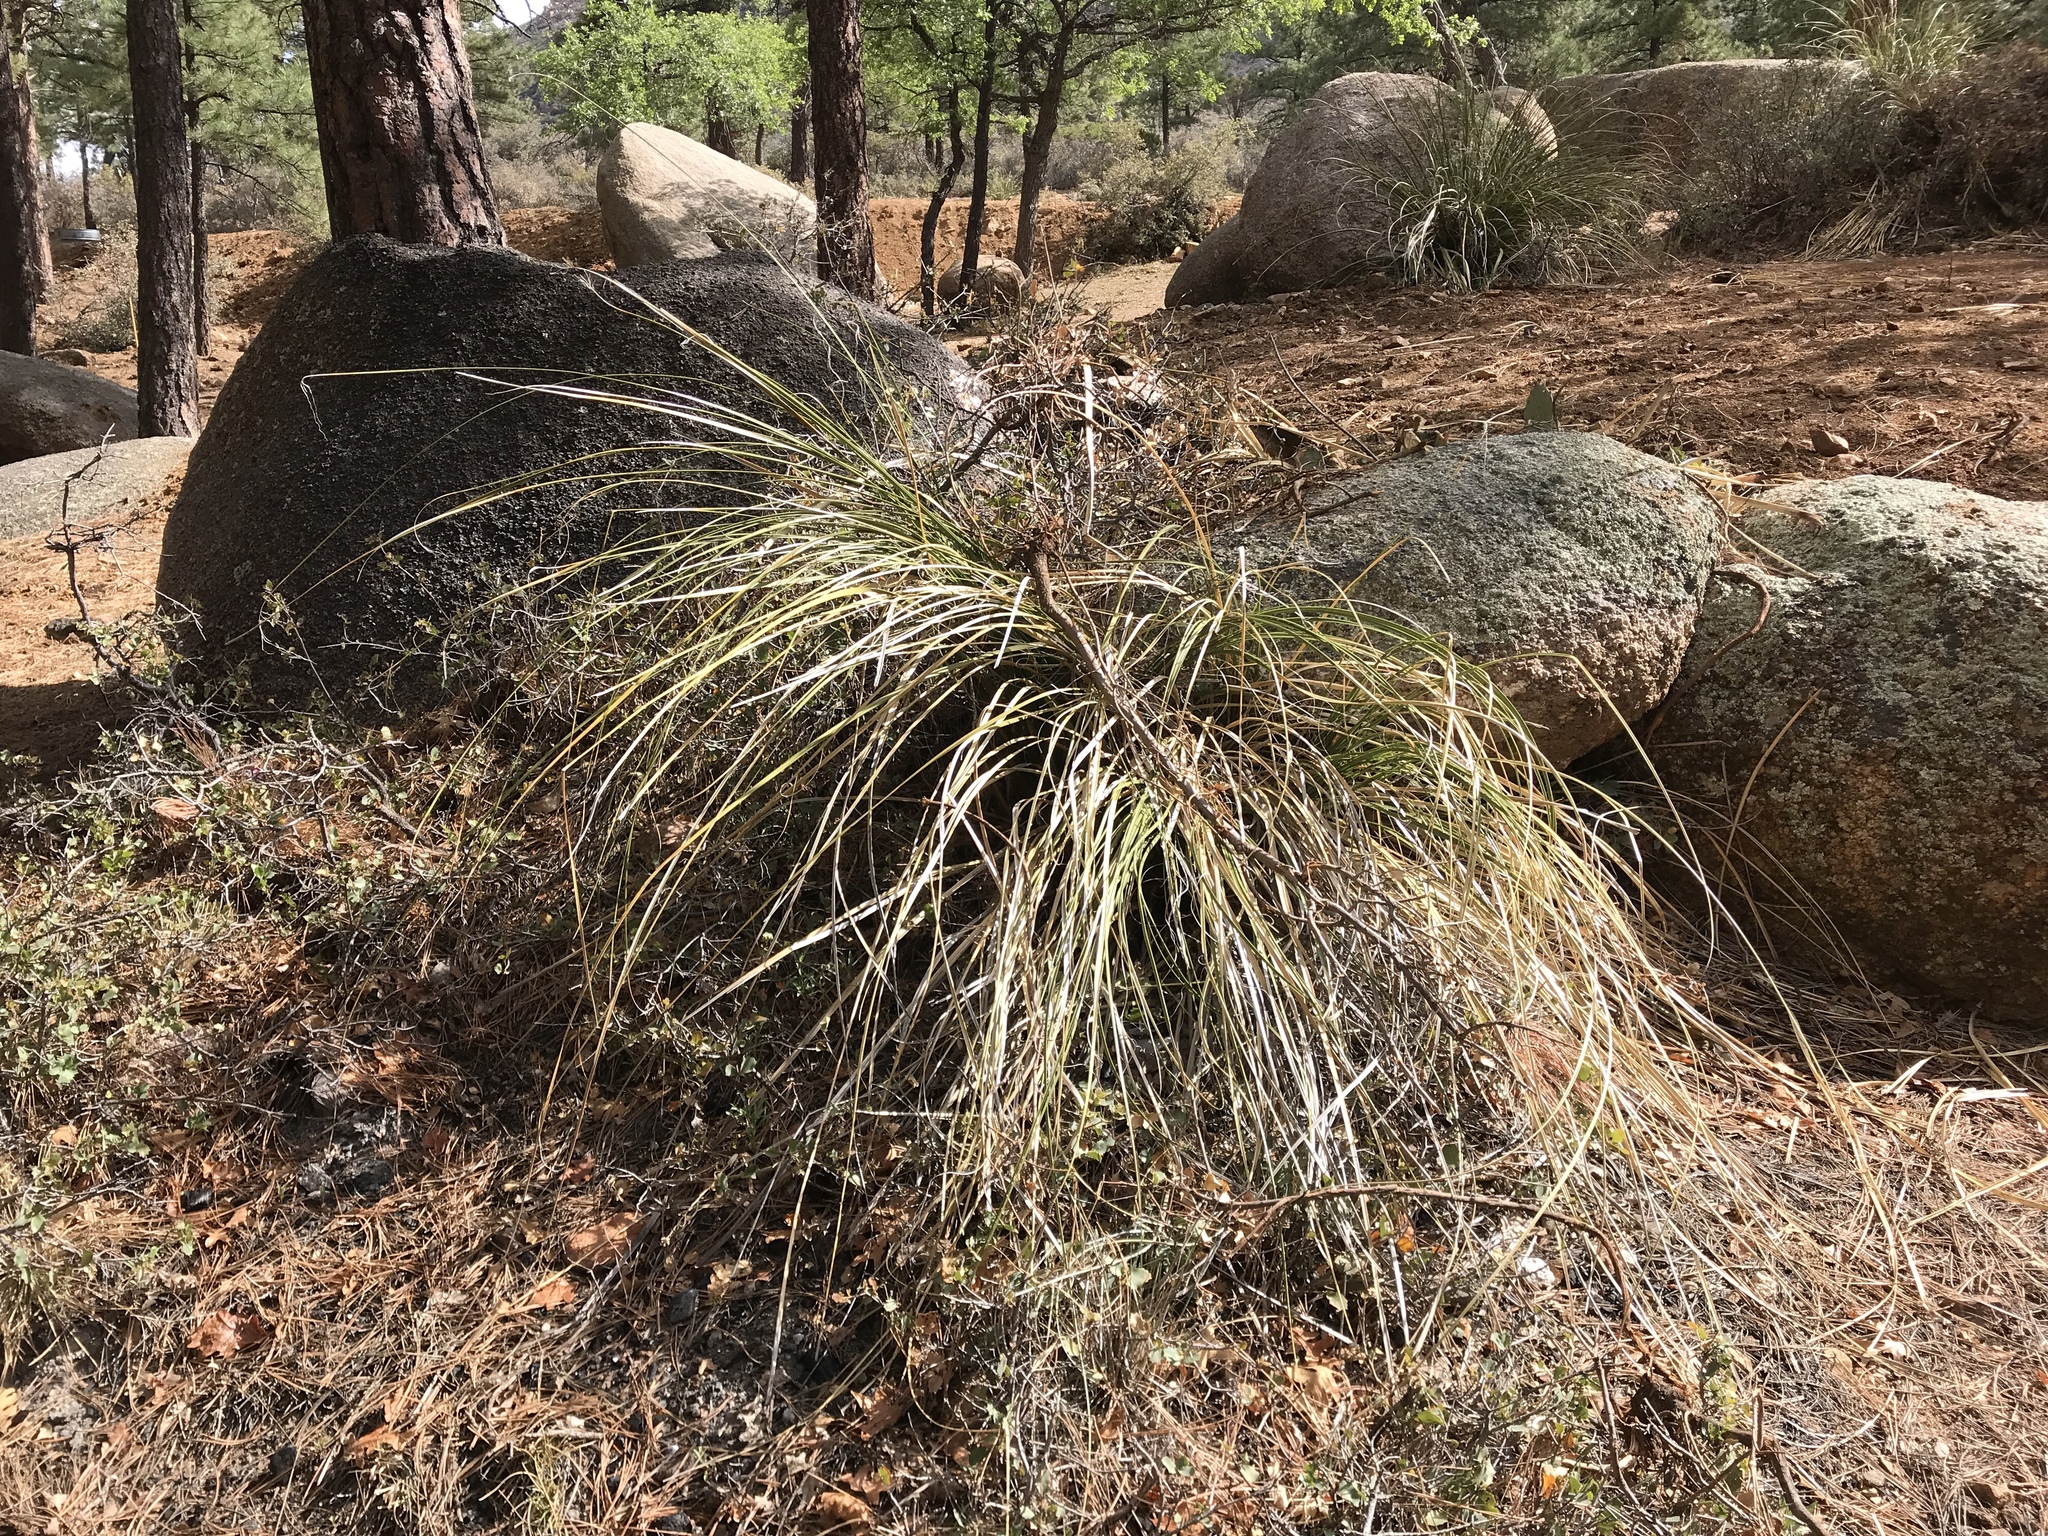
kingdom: Plantae
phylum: Tracheophyta
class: Liliopsida
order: Asparagales
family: Asparagaceae
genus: Nolina
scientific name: Nolina microcarpa
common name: Bear-grass
